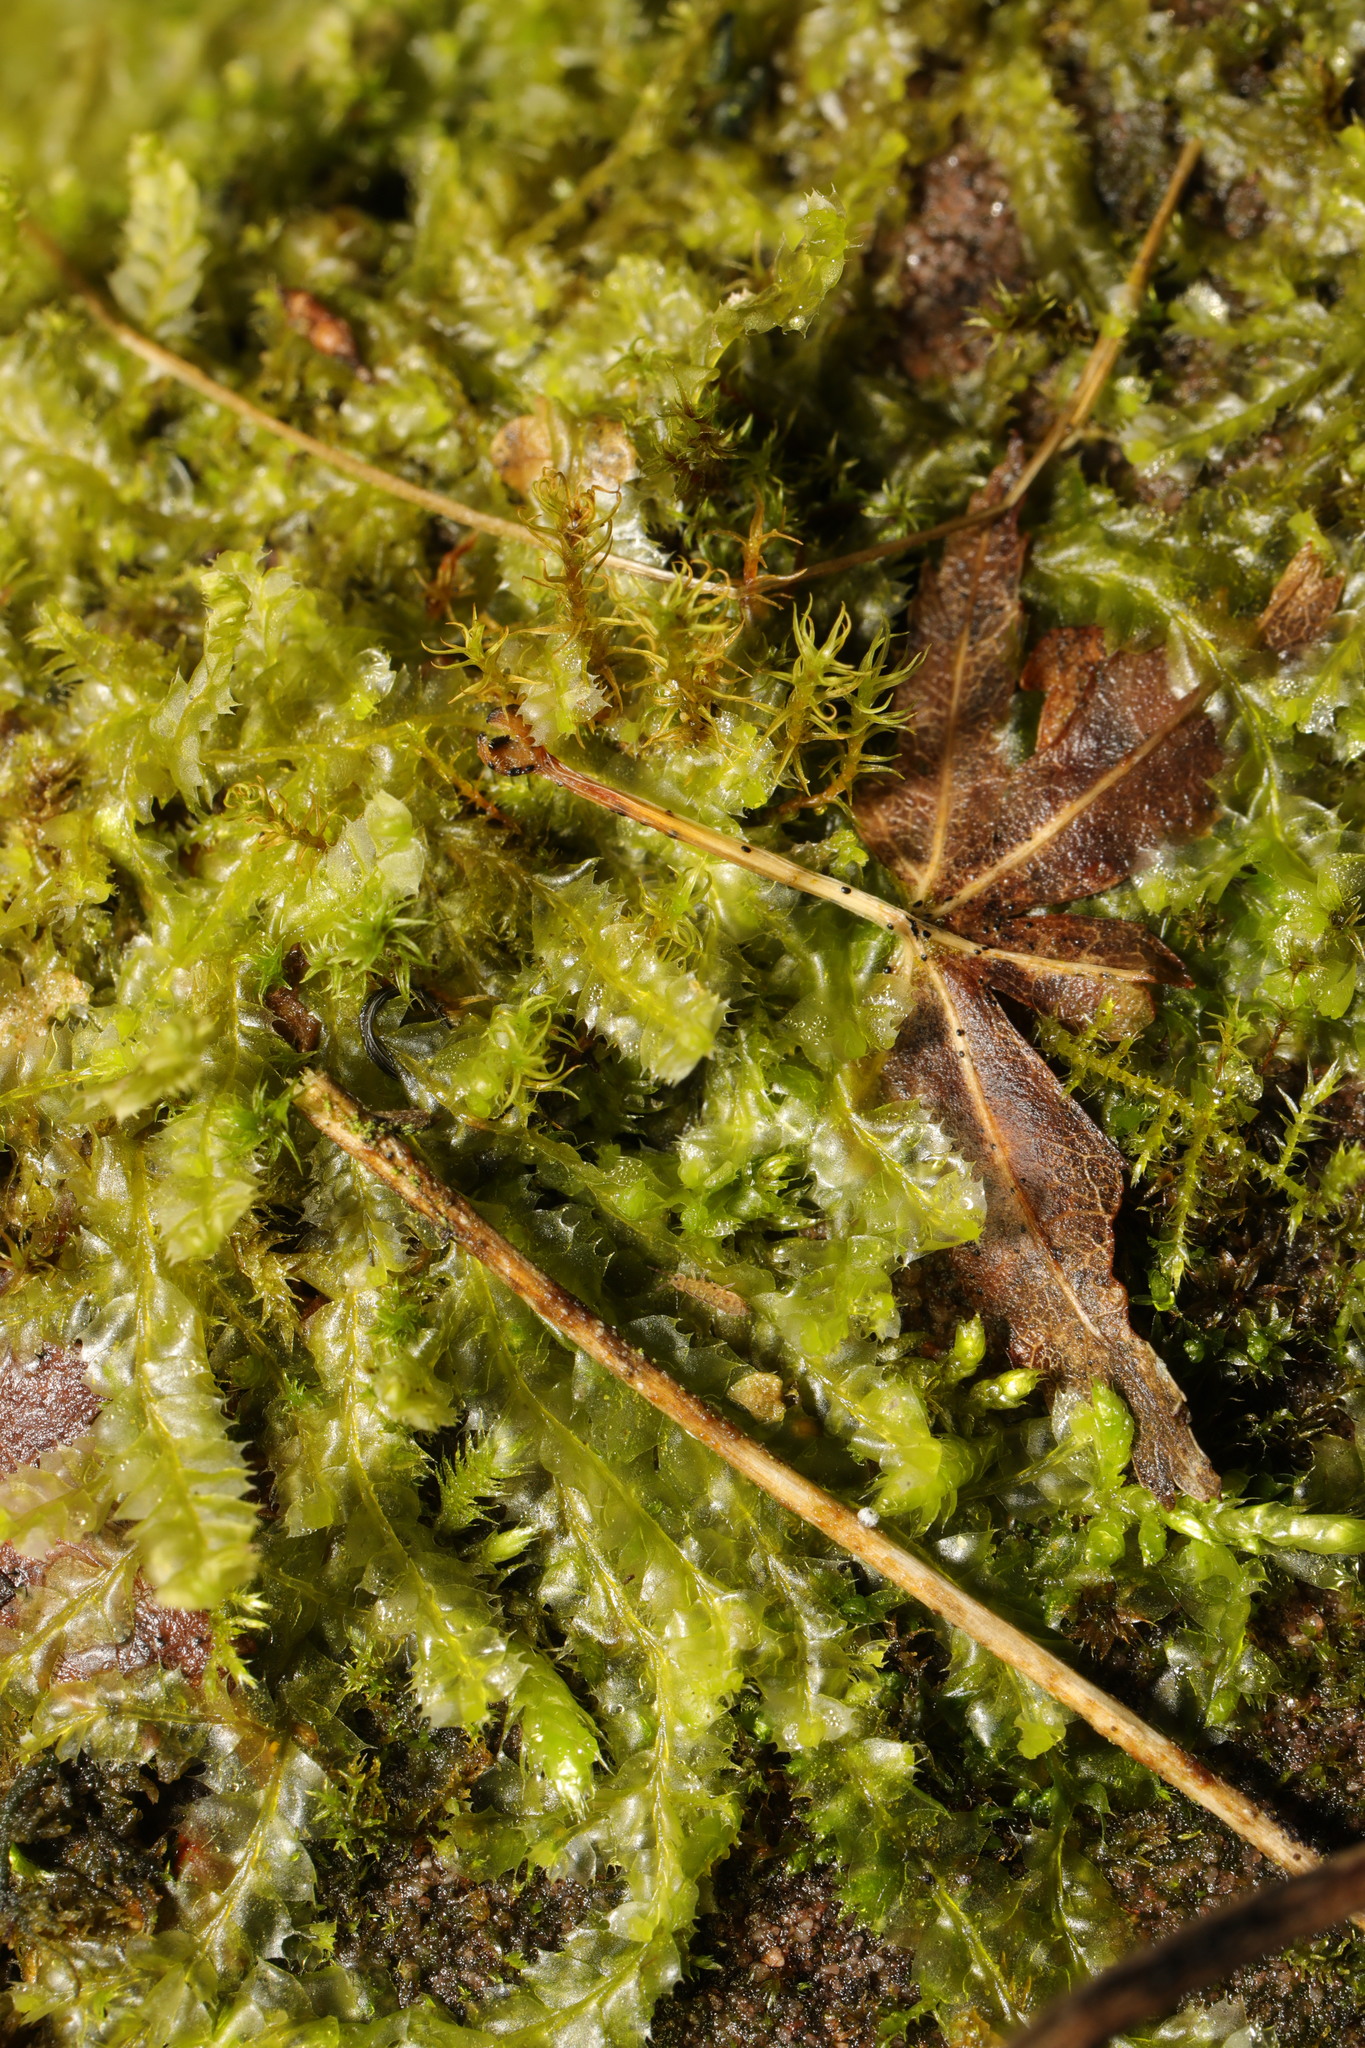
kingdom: Plantae
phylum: Marchantiophyta
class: Jungermanniopsida
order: Jungermanniales
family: Lophocoleaceae
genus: Lophocolea
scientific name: Lophocolea bidentata
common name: Bifid crestwort
